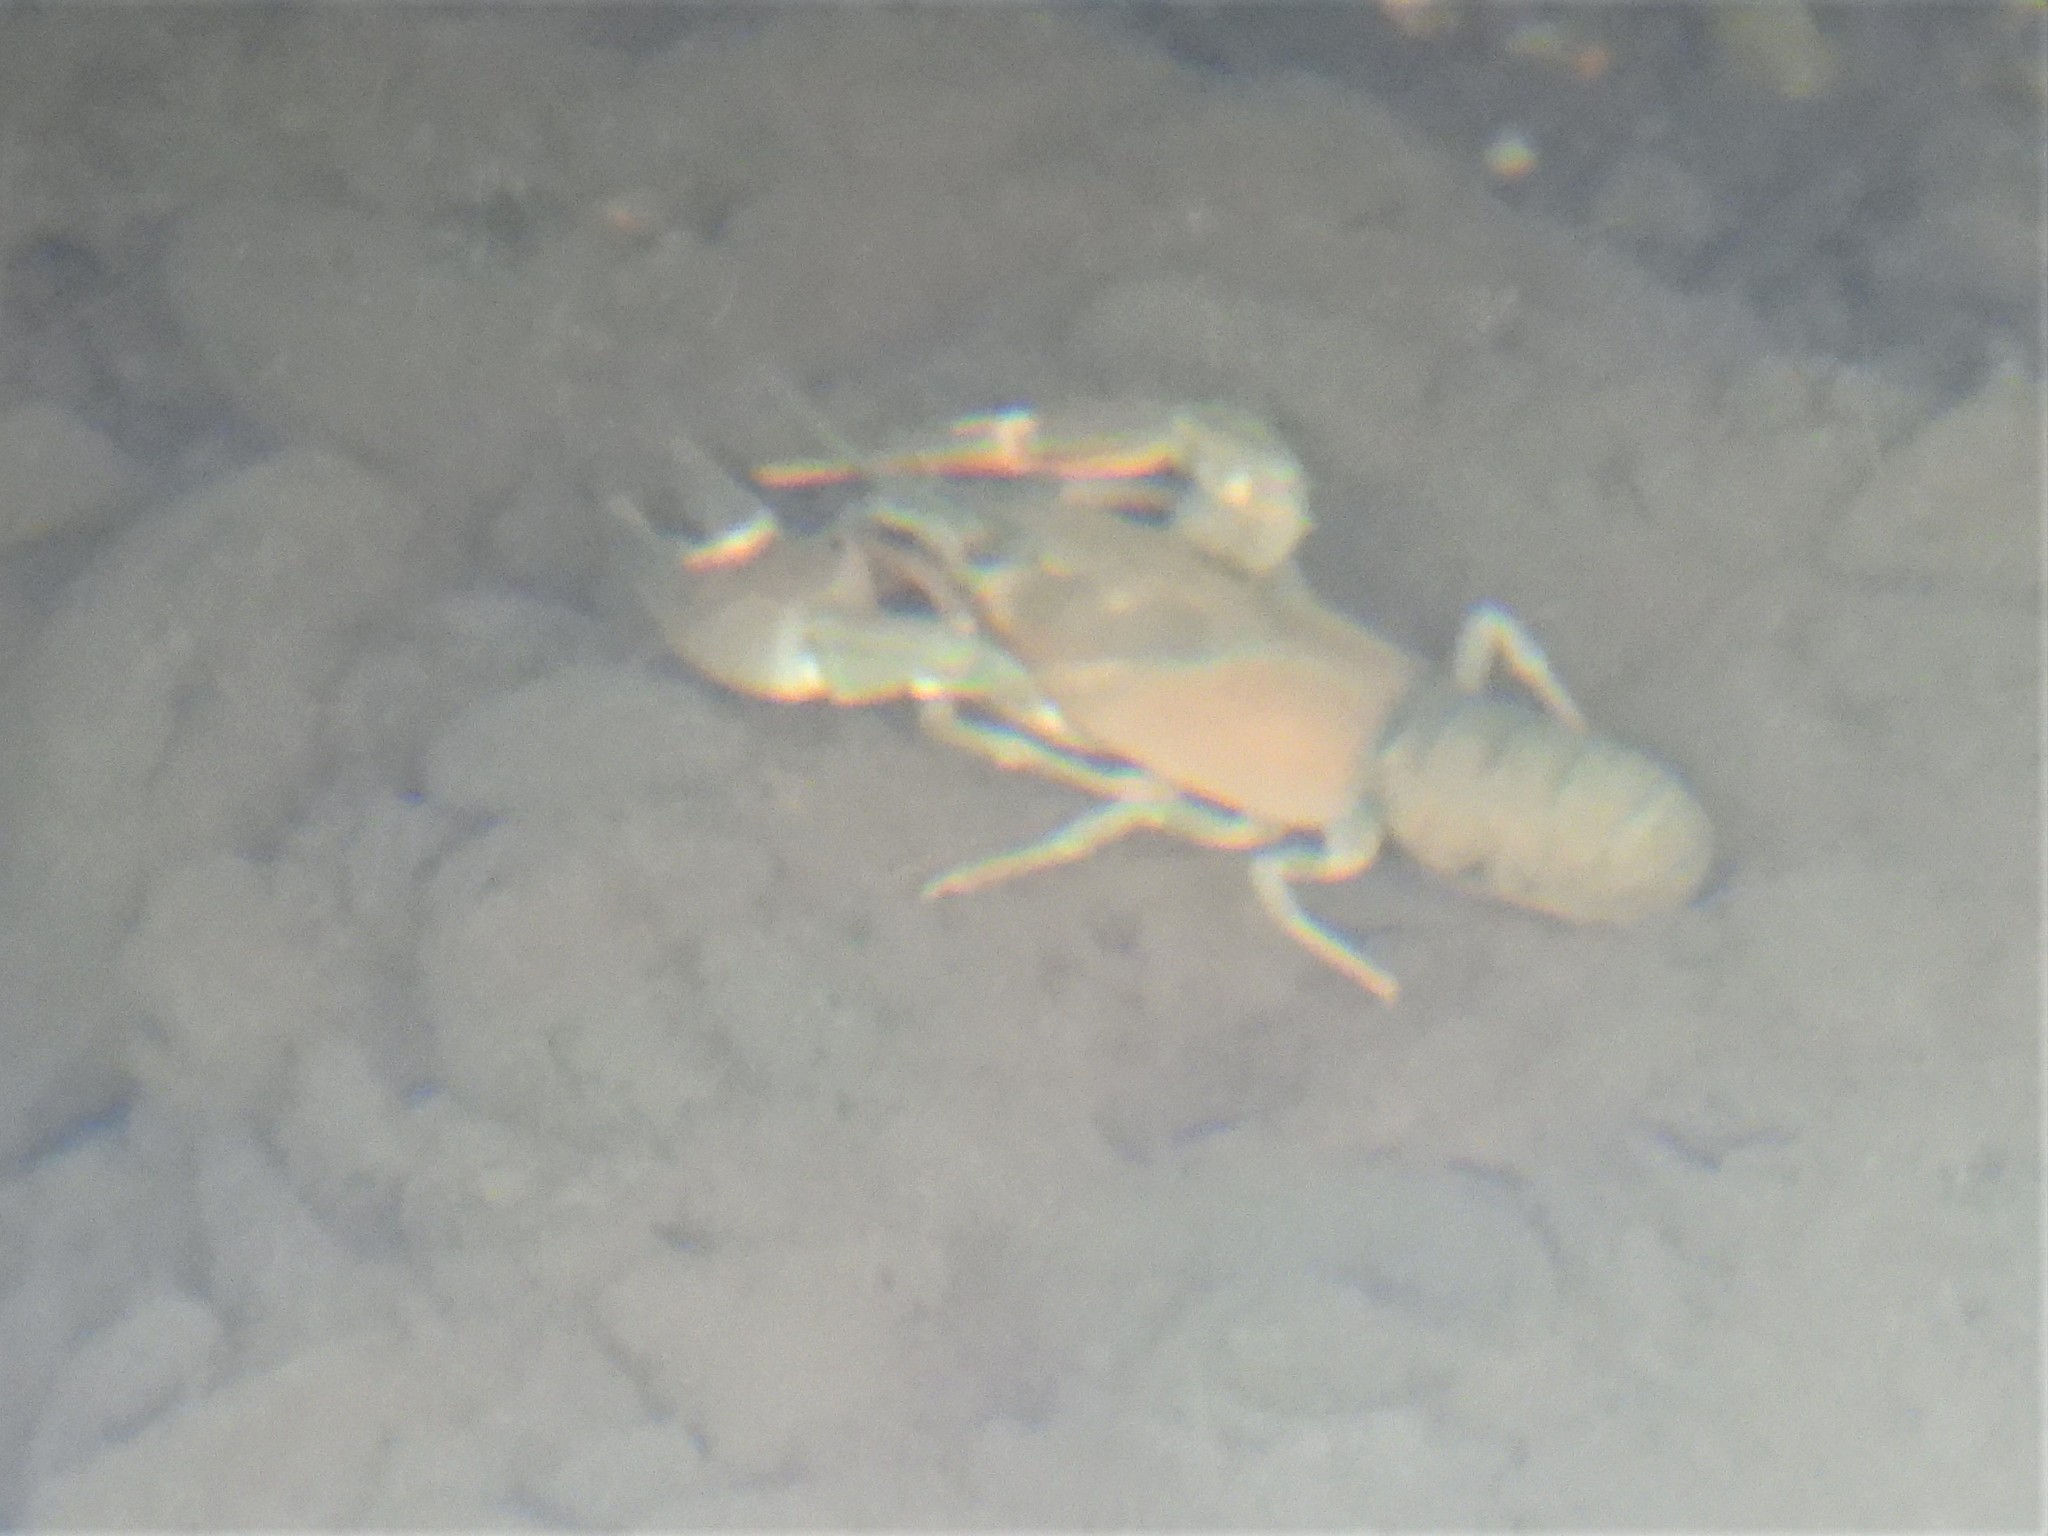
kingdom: Animalia
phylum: Arthropoda
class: Malacostraca
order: Decapoda
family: Astacidae
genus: Pacifastacus
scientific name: Pacifastacus leniusculus
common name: Signal crayfish
